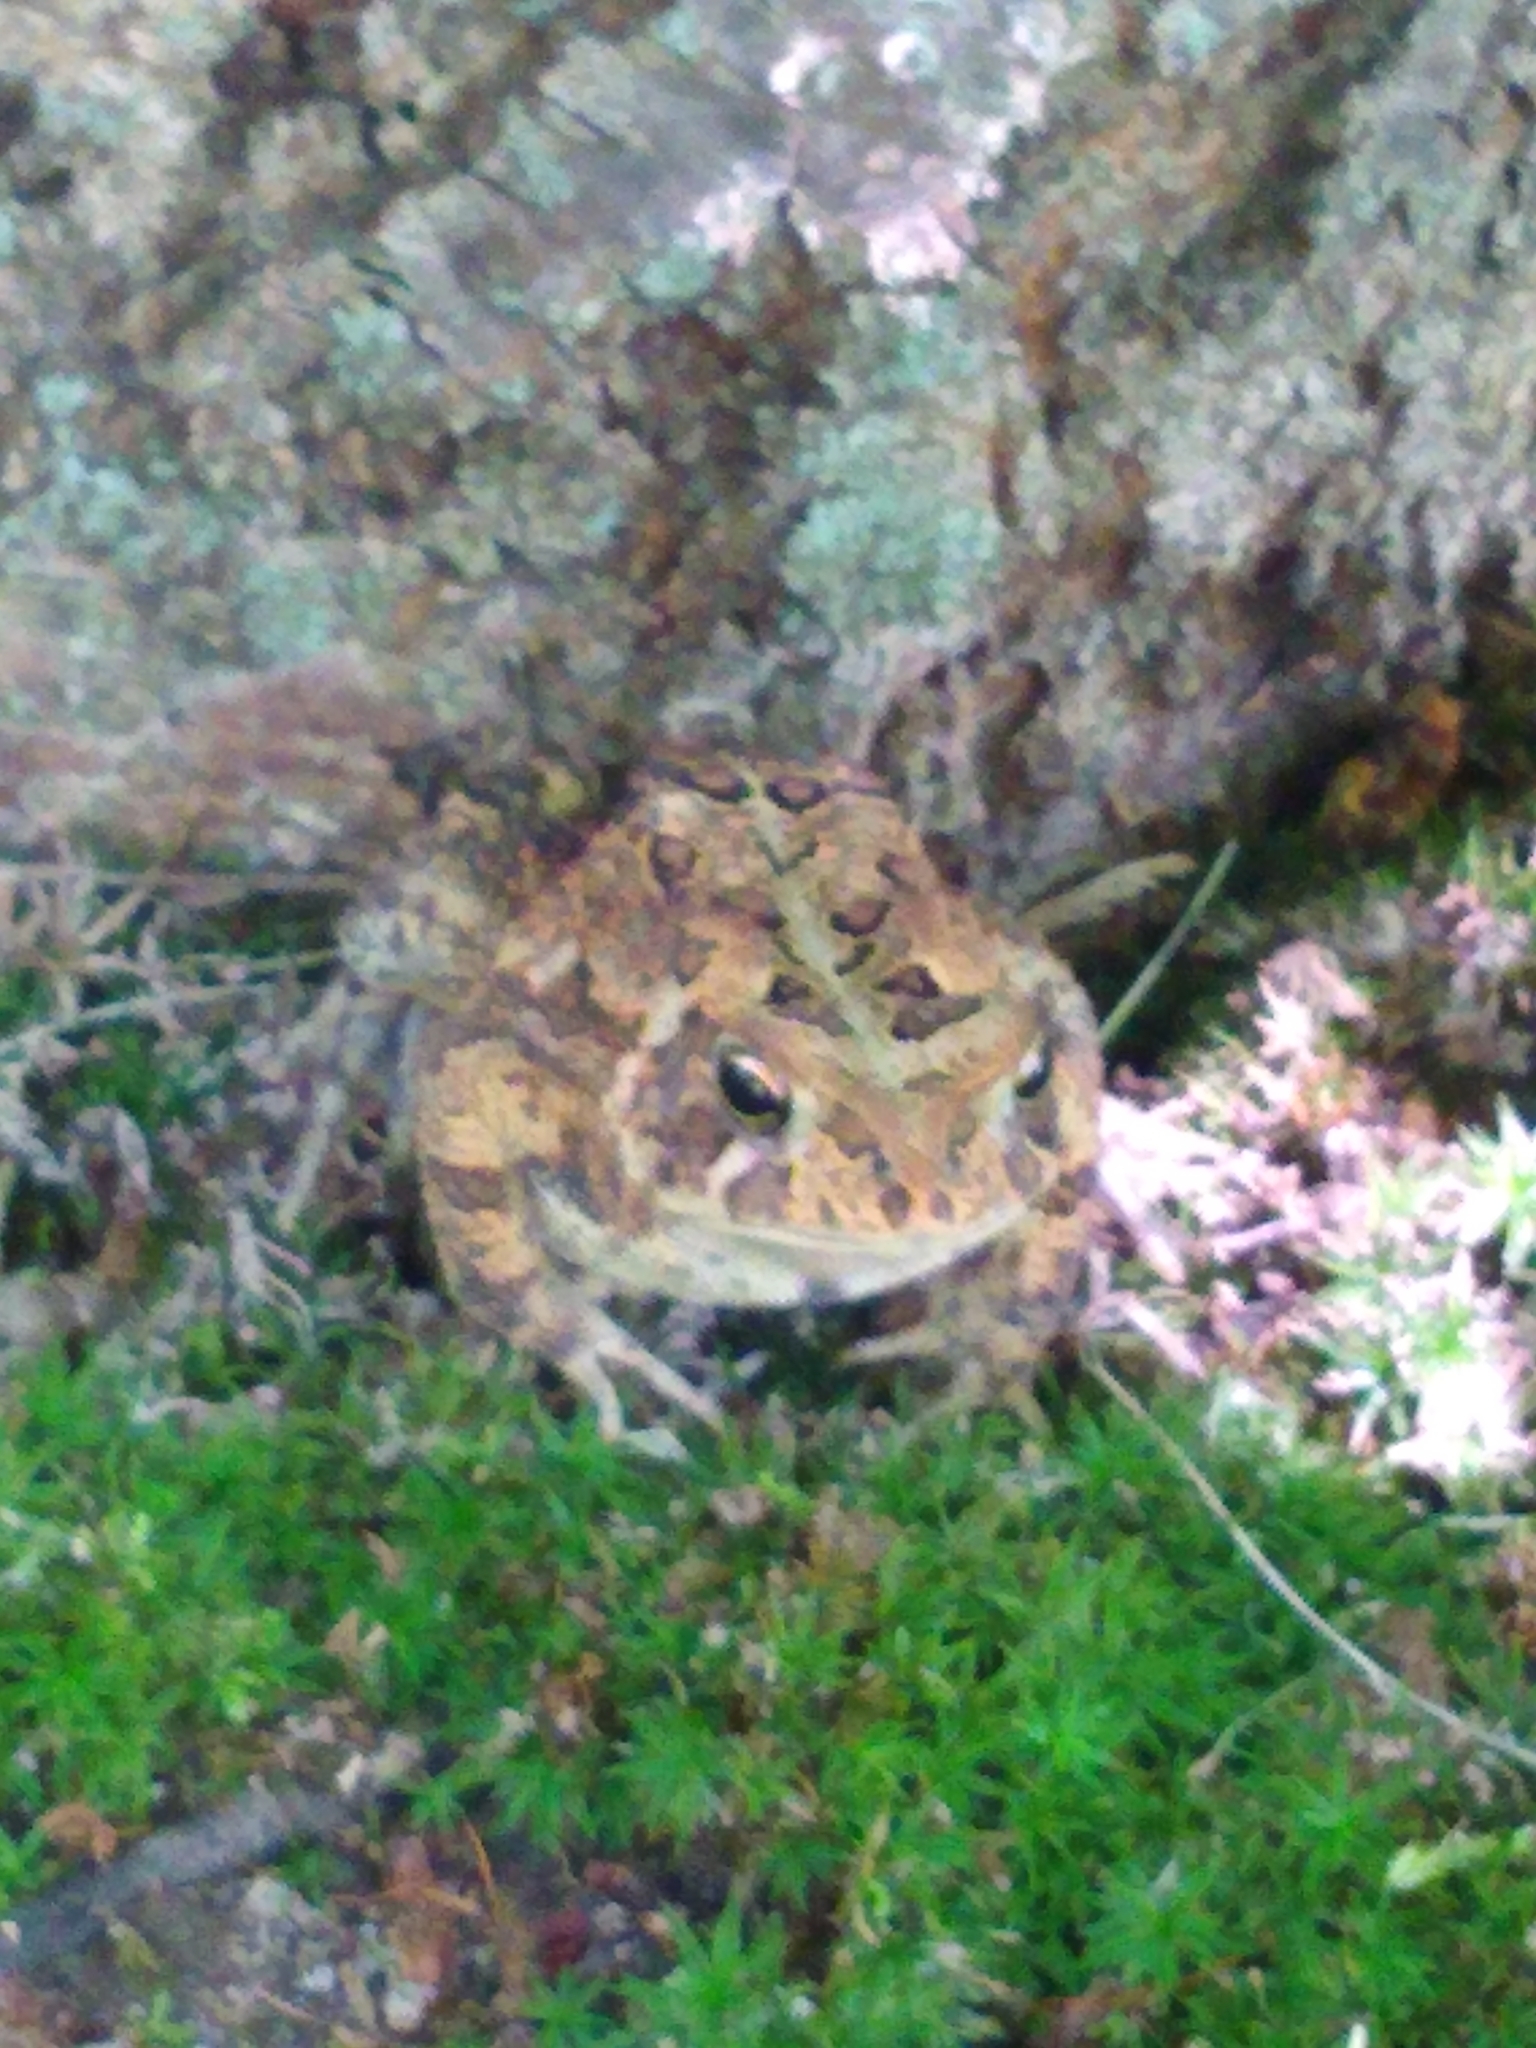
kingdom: Animalia
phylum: Chordata
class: Amphibia
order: Anura
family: Bufonidae
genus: Anaxyrus
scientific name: Anaxyrus americanus
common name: American toad
